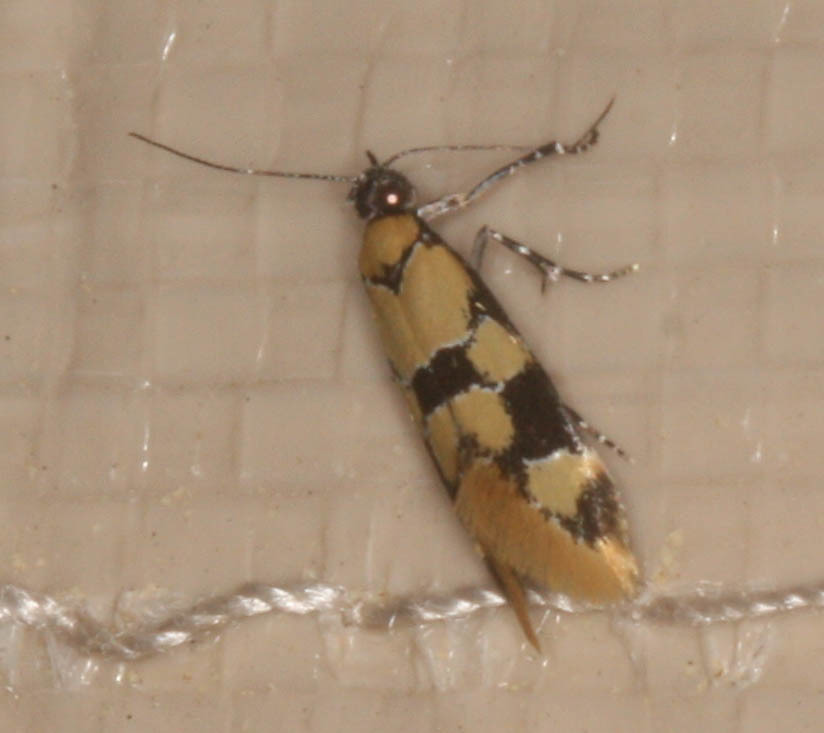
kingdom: Animalia
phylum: Arthropoda
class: Insecta
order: Lepidoptera
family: Oecophoridae
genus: Decantha
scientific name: Decantha stonda
